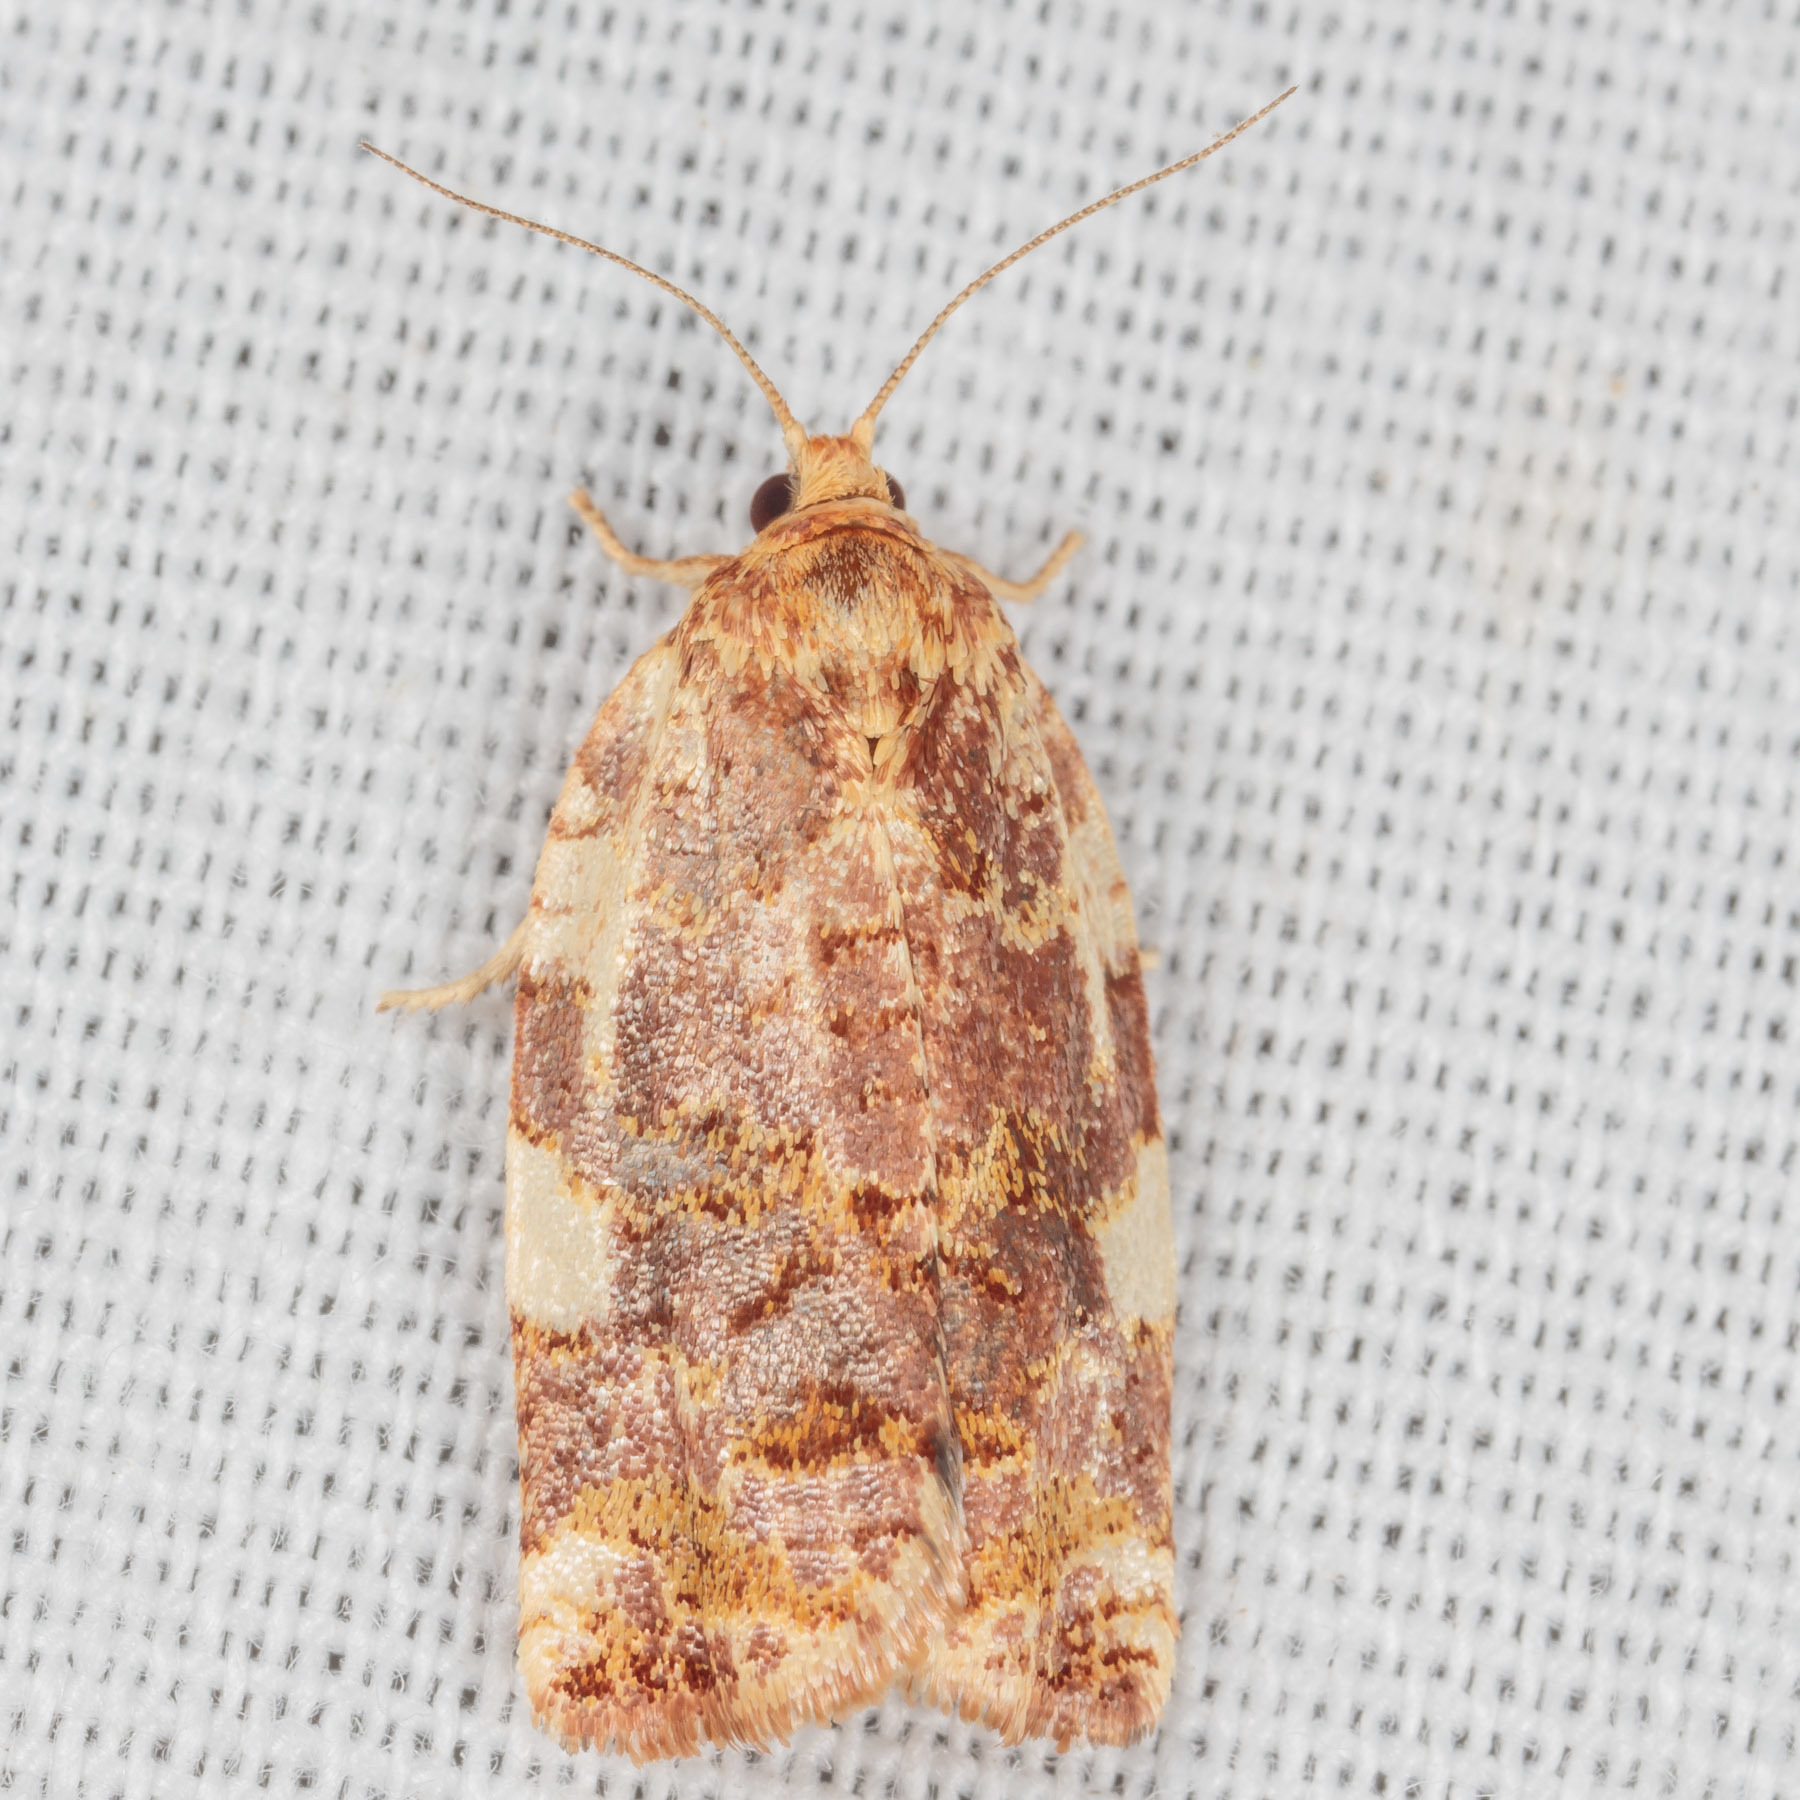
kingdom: Animalia
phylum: Arthropoda
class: Insecta
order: Lepidoptera
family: Tortricidae
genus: Archips
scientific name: Archips argyrospila
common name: Fruit-tree leafroller moth
